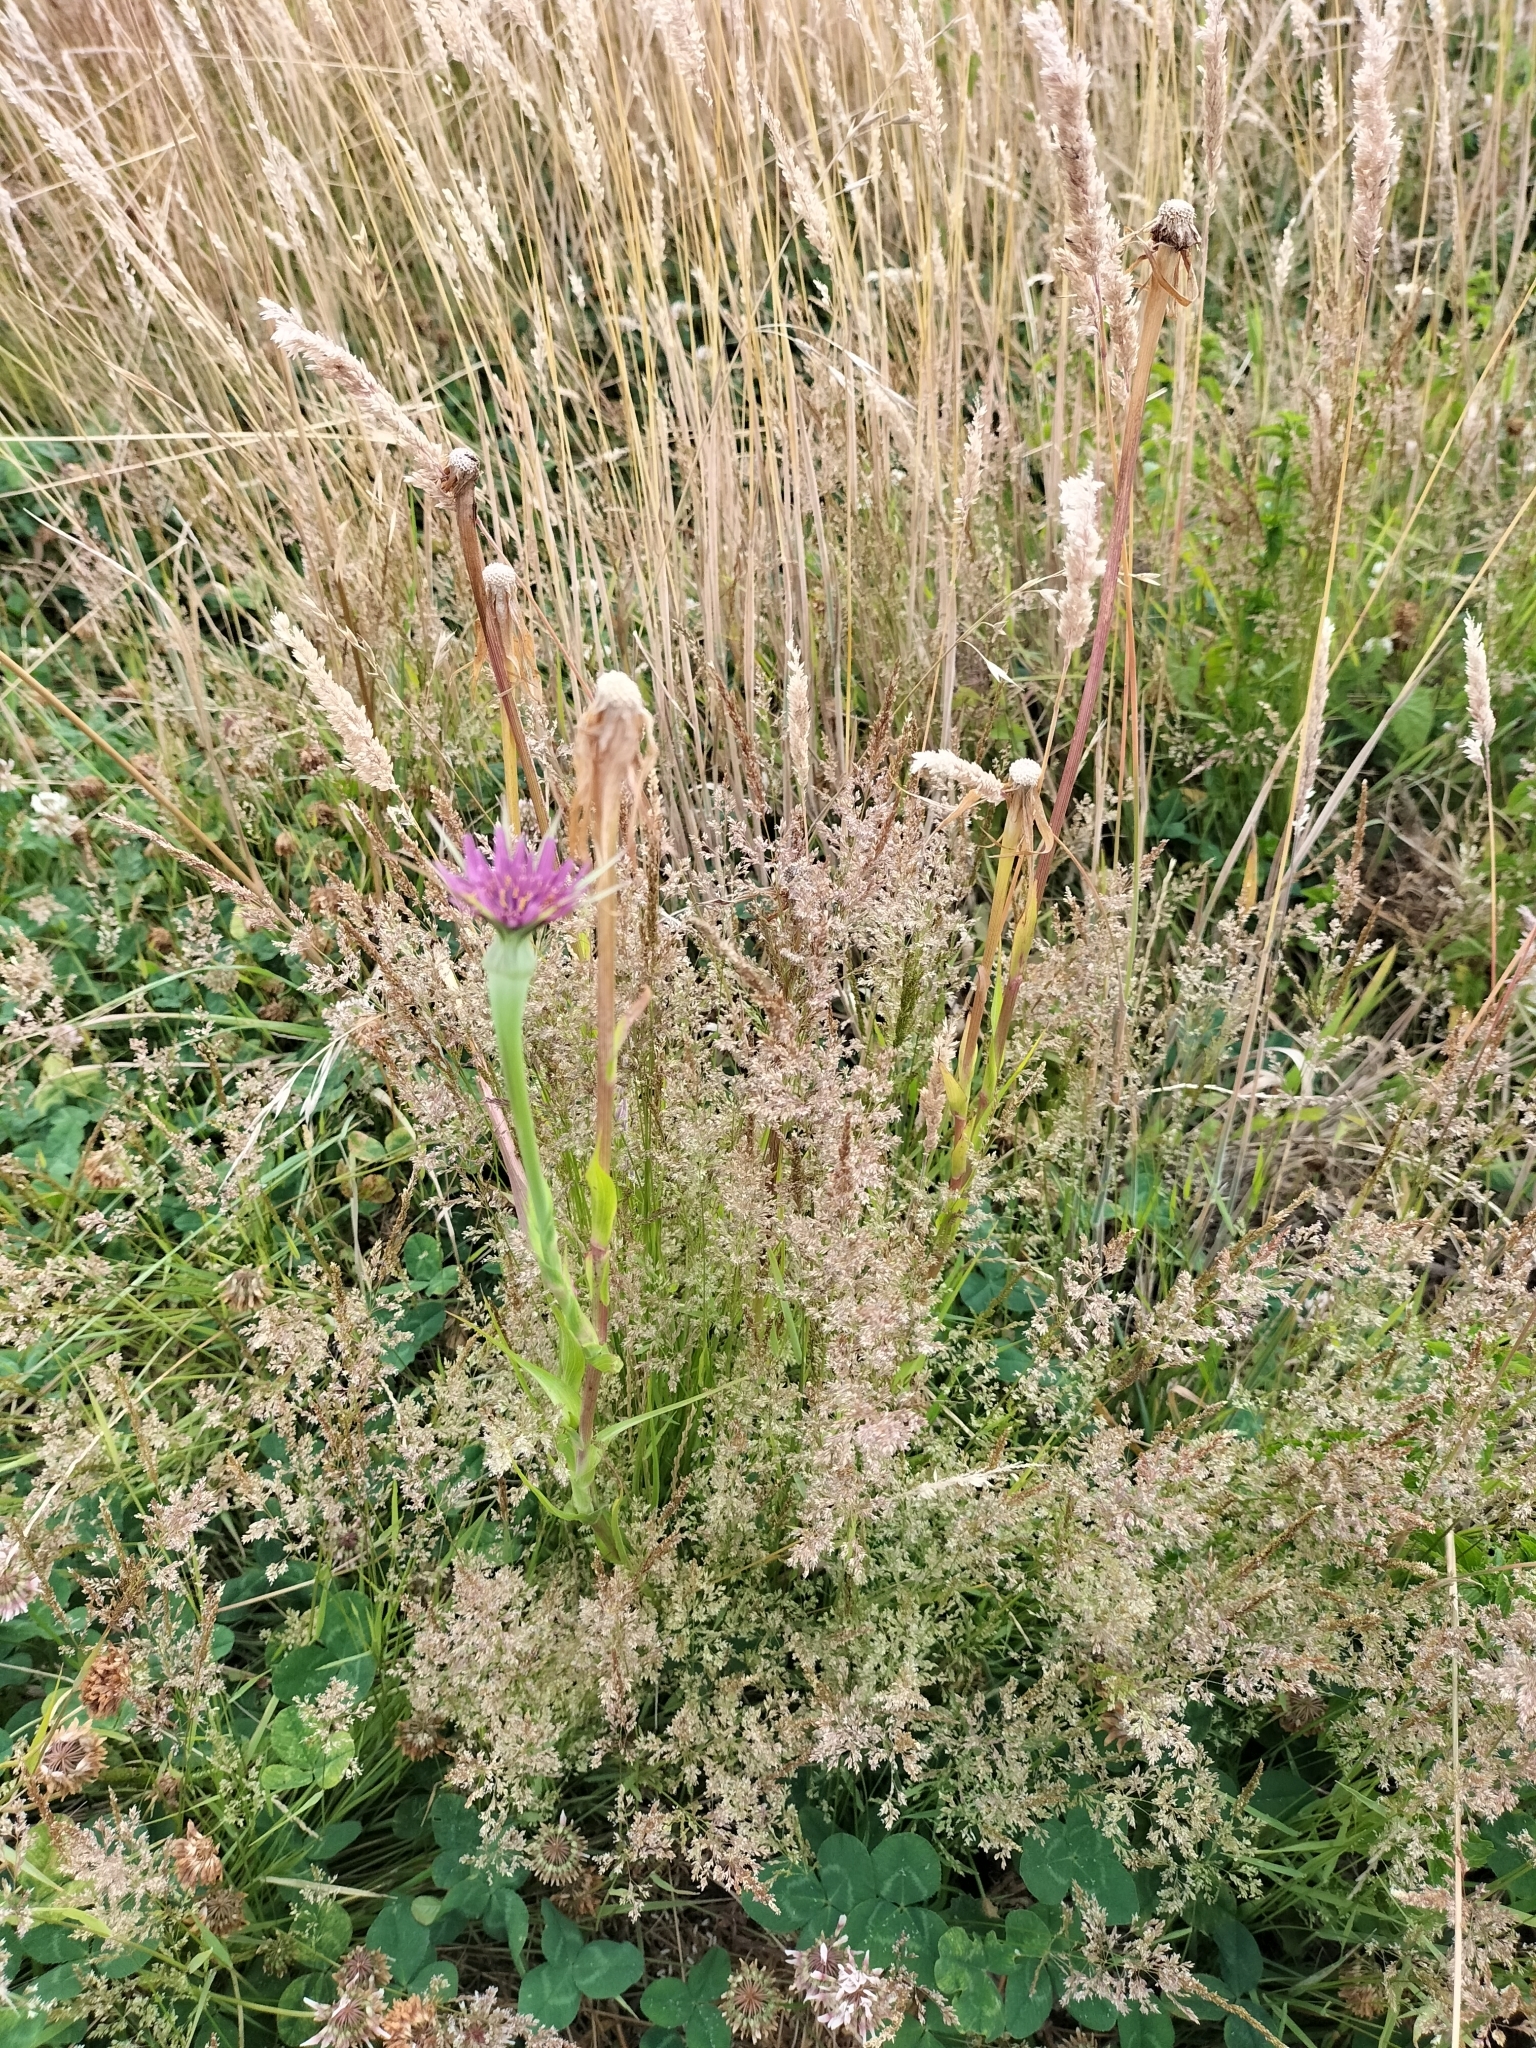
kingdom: Plantae
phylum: Tracheophyta
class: Magnoliopsida
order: Asterales
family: Asteraceae
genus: Tragopogon
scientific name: Tragopogon porrifolius
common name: Salsify
